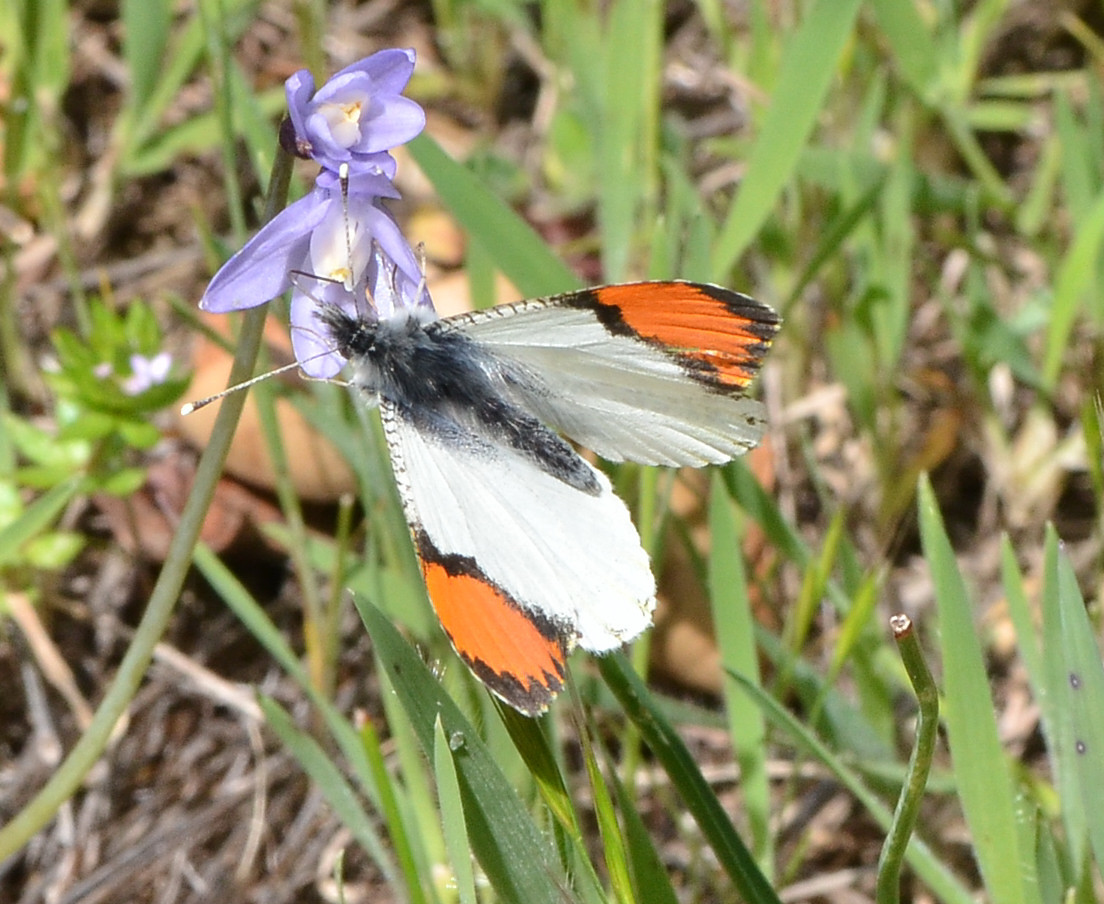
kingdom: Animalia
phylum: Arthropoda
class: Insecta
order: Lepidoptera
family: Pieridae
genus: Anthocharis
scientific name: Anthocharis sara
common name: Sara's orangetip
